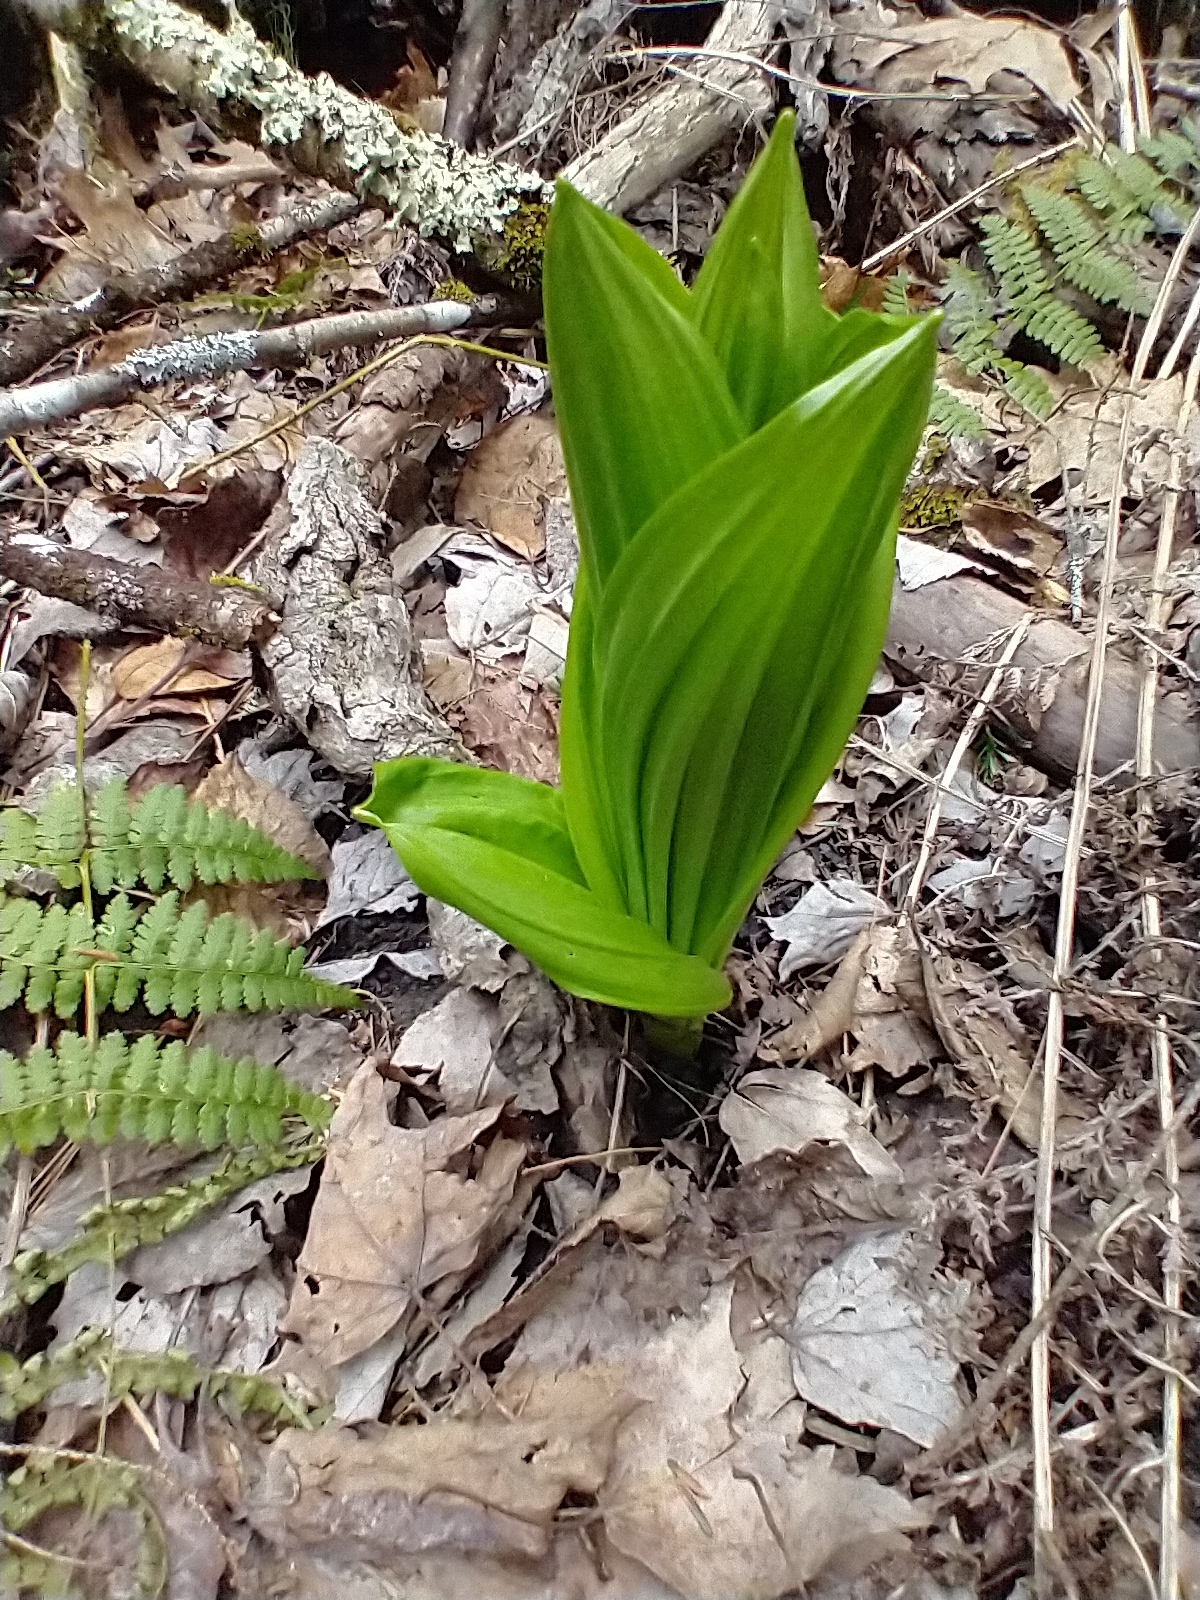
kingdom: Plantae
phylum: Tracheophyta
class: Liliopsida
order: Liliales
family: Melanthiaceae
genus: Veratrum
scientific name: Veratrum viride
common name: American false hellebore
